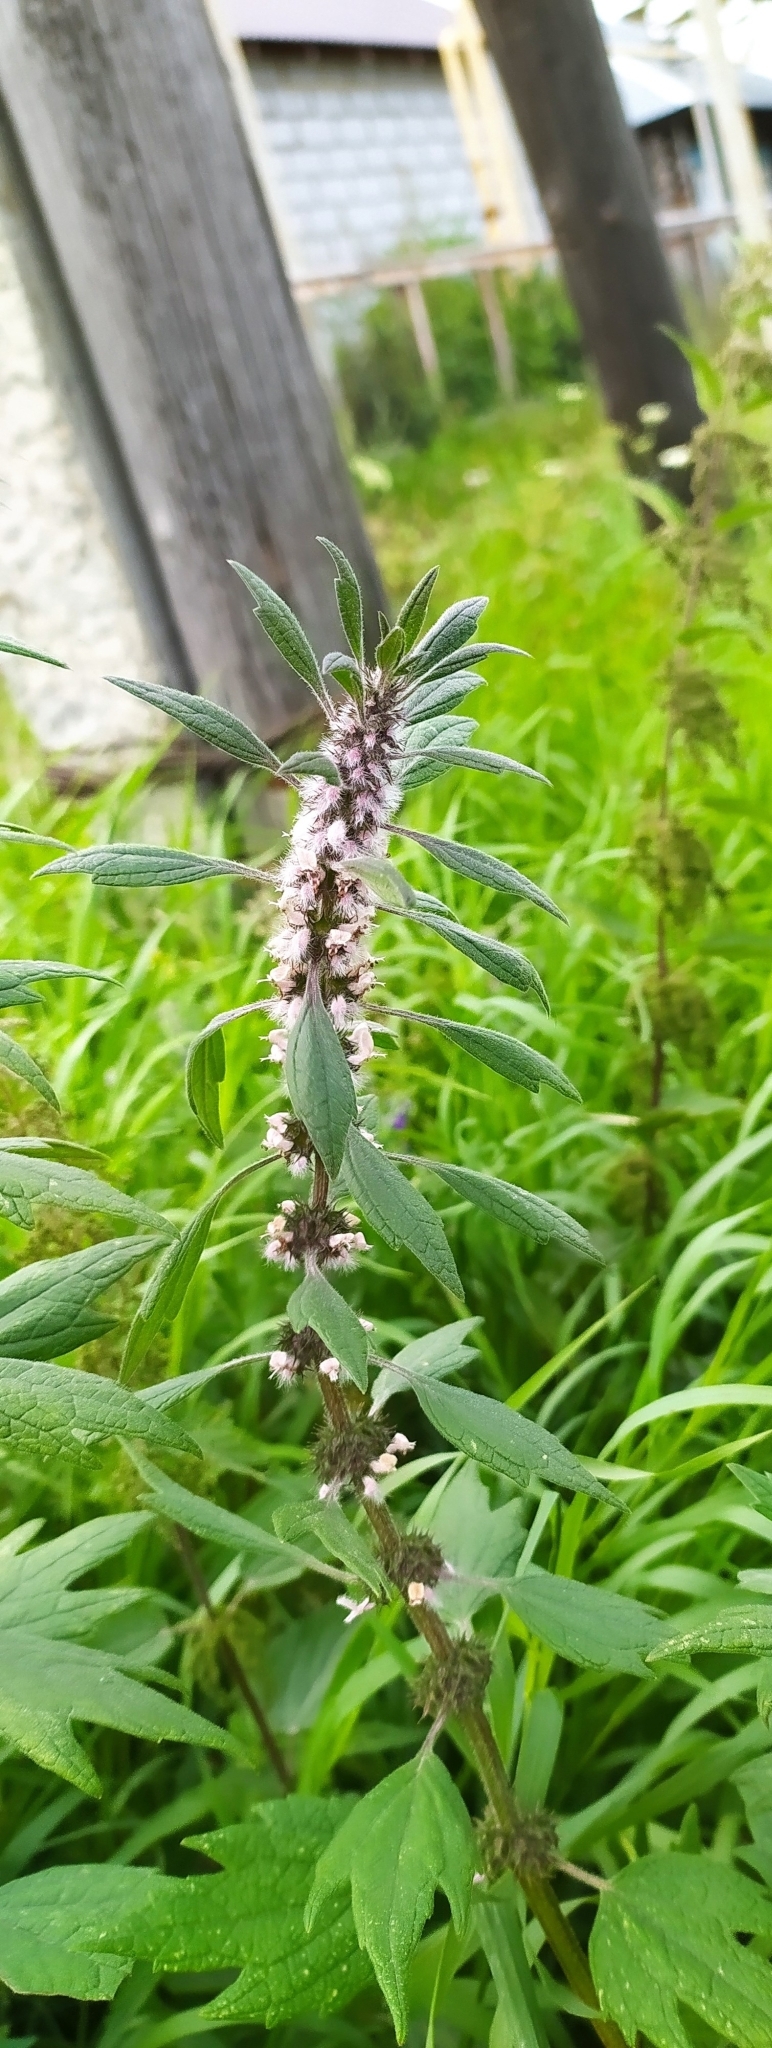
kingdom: Plantae
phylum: Tracheophyta
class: Magnoliopsida
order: Lamiales
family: Lamiaceae
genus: Leonurus
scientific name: Leonurus quinquelobatus
